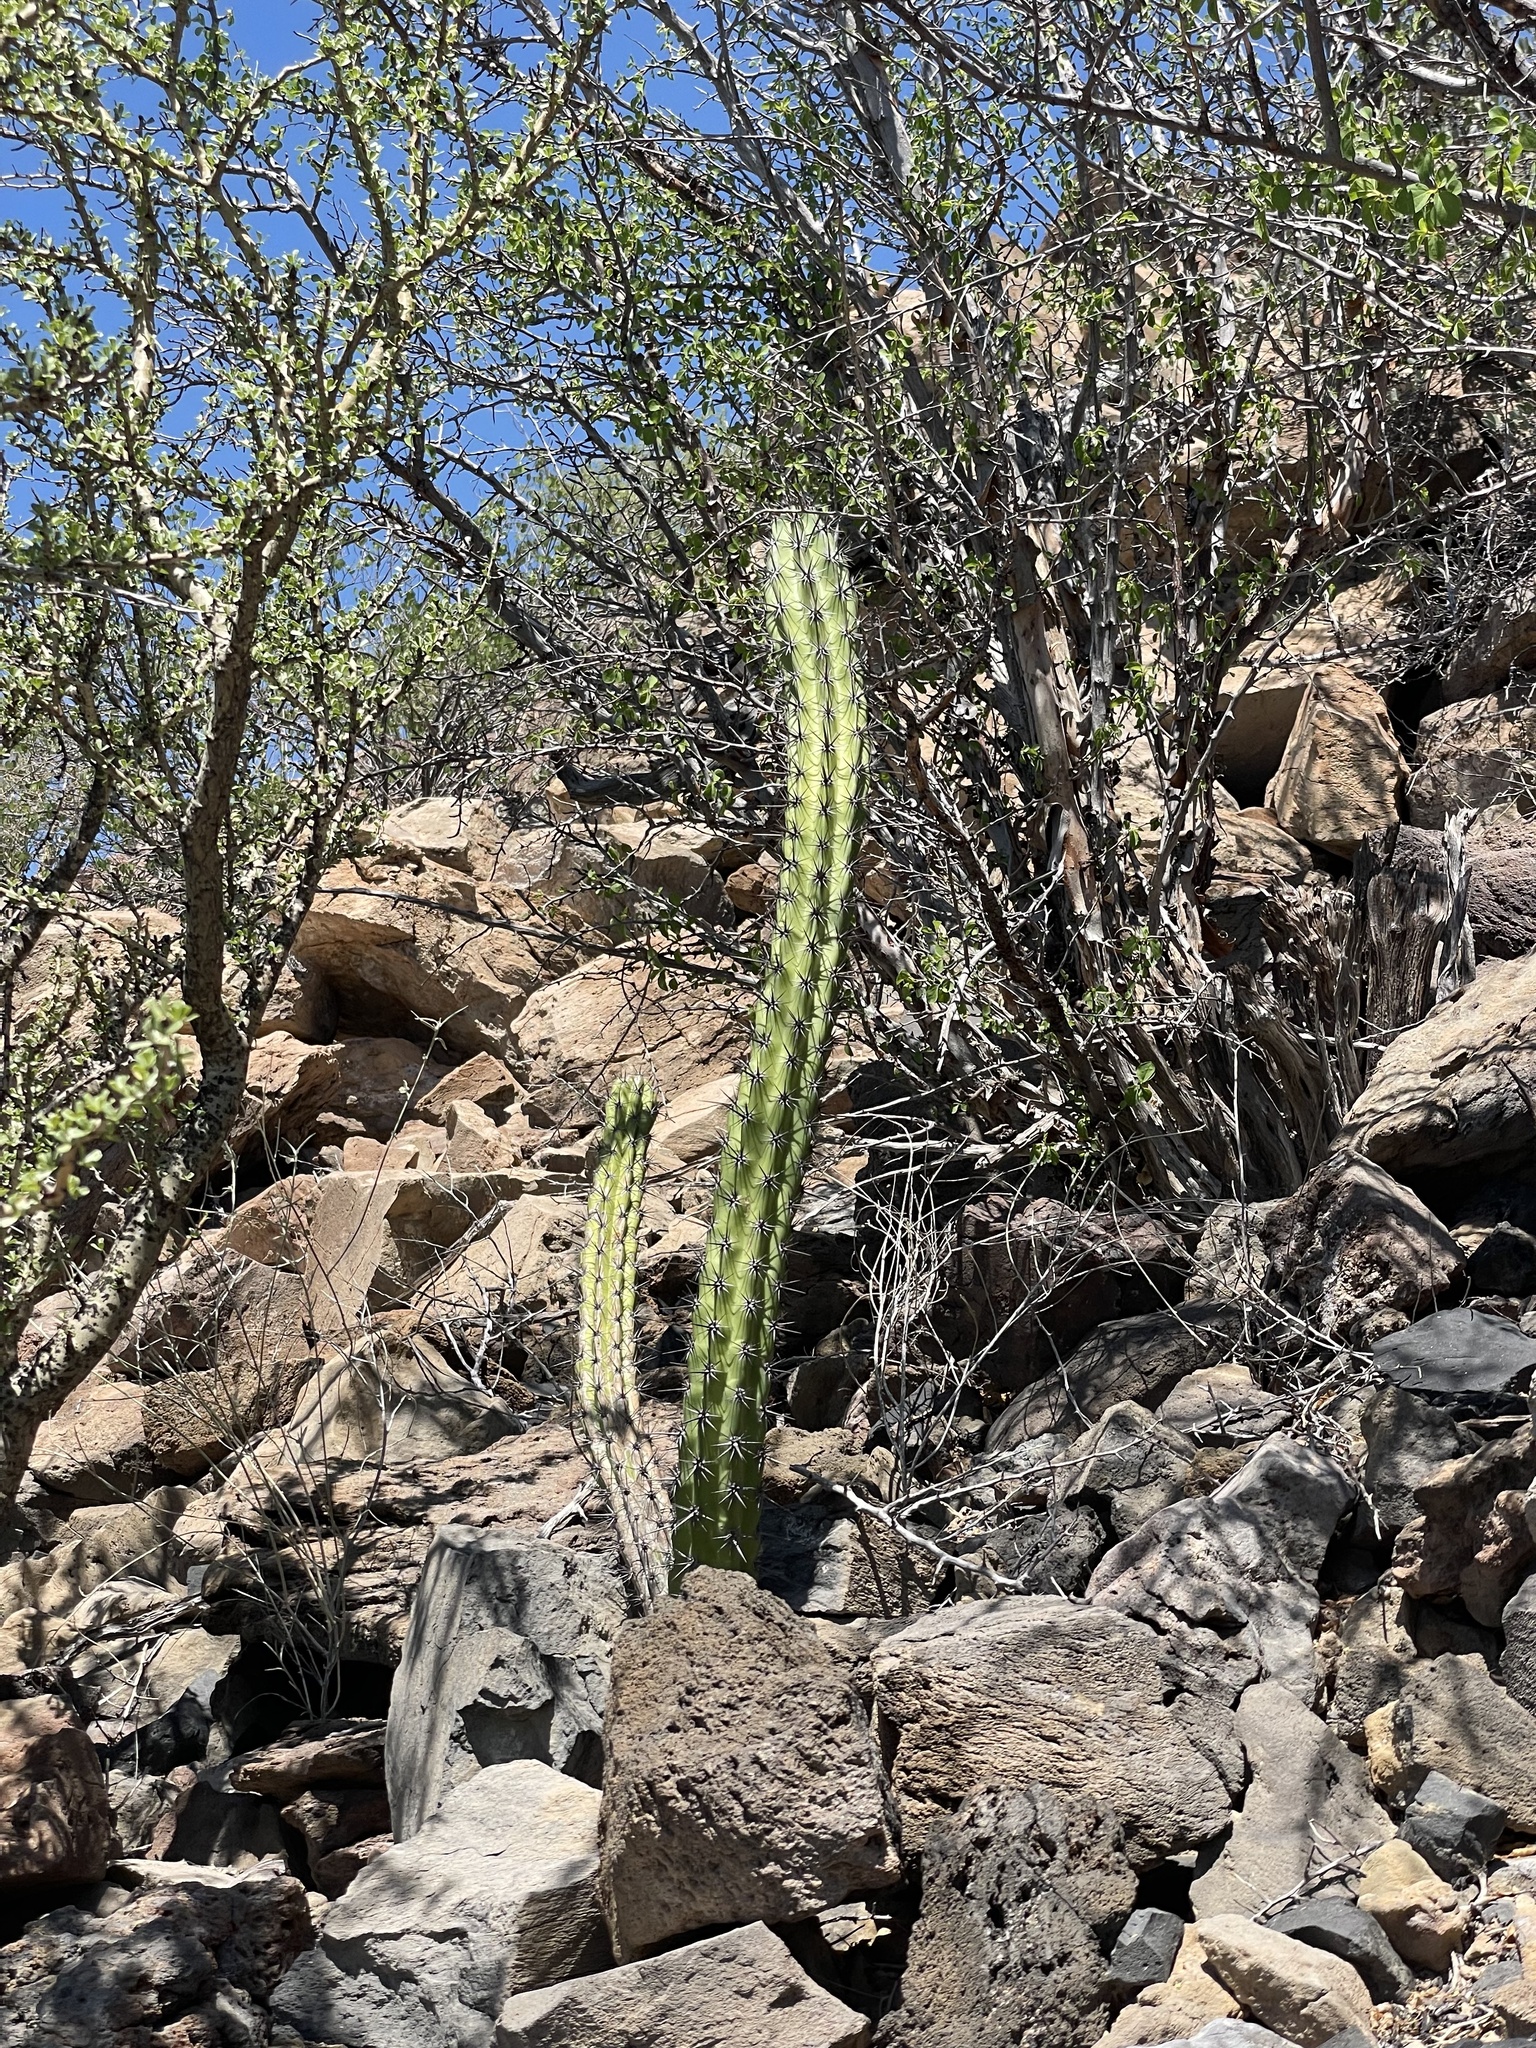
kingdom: Plantae
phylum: Tracheophyta
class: Magnoliopsida
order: Caryophyllales
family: Cactaceae
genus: Stenocereus
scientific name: Stenocereus gummosus
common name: Dagger cactus
